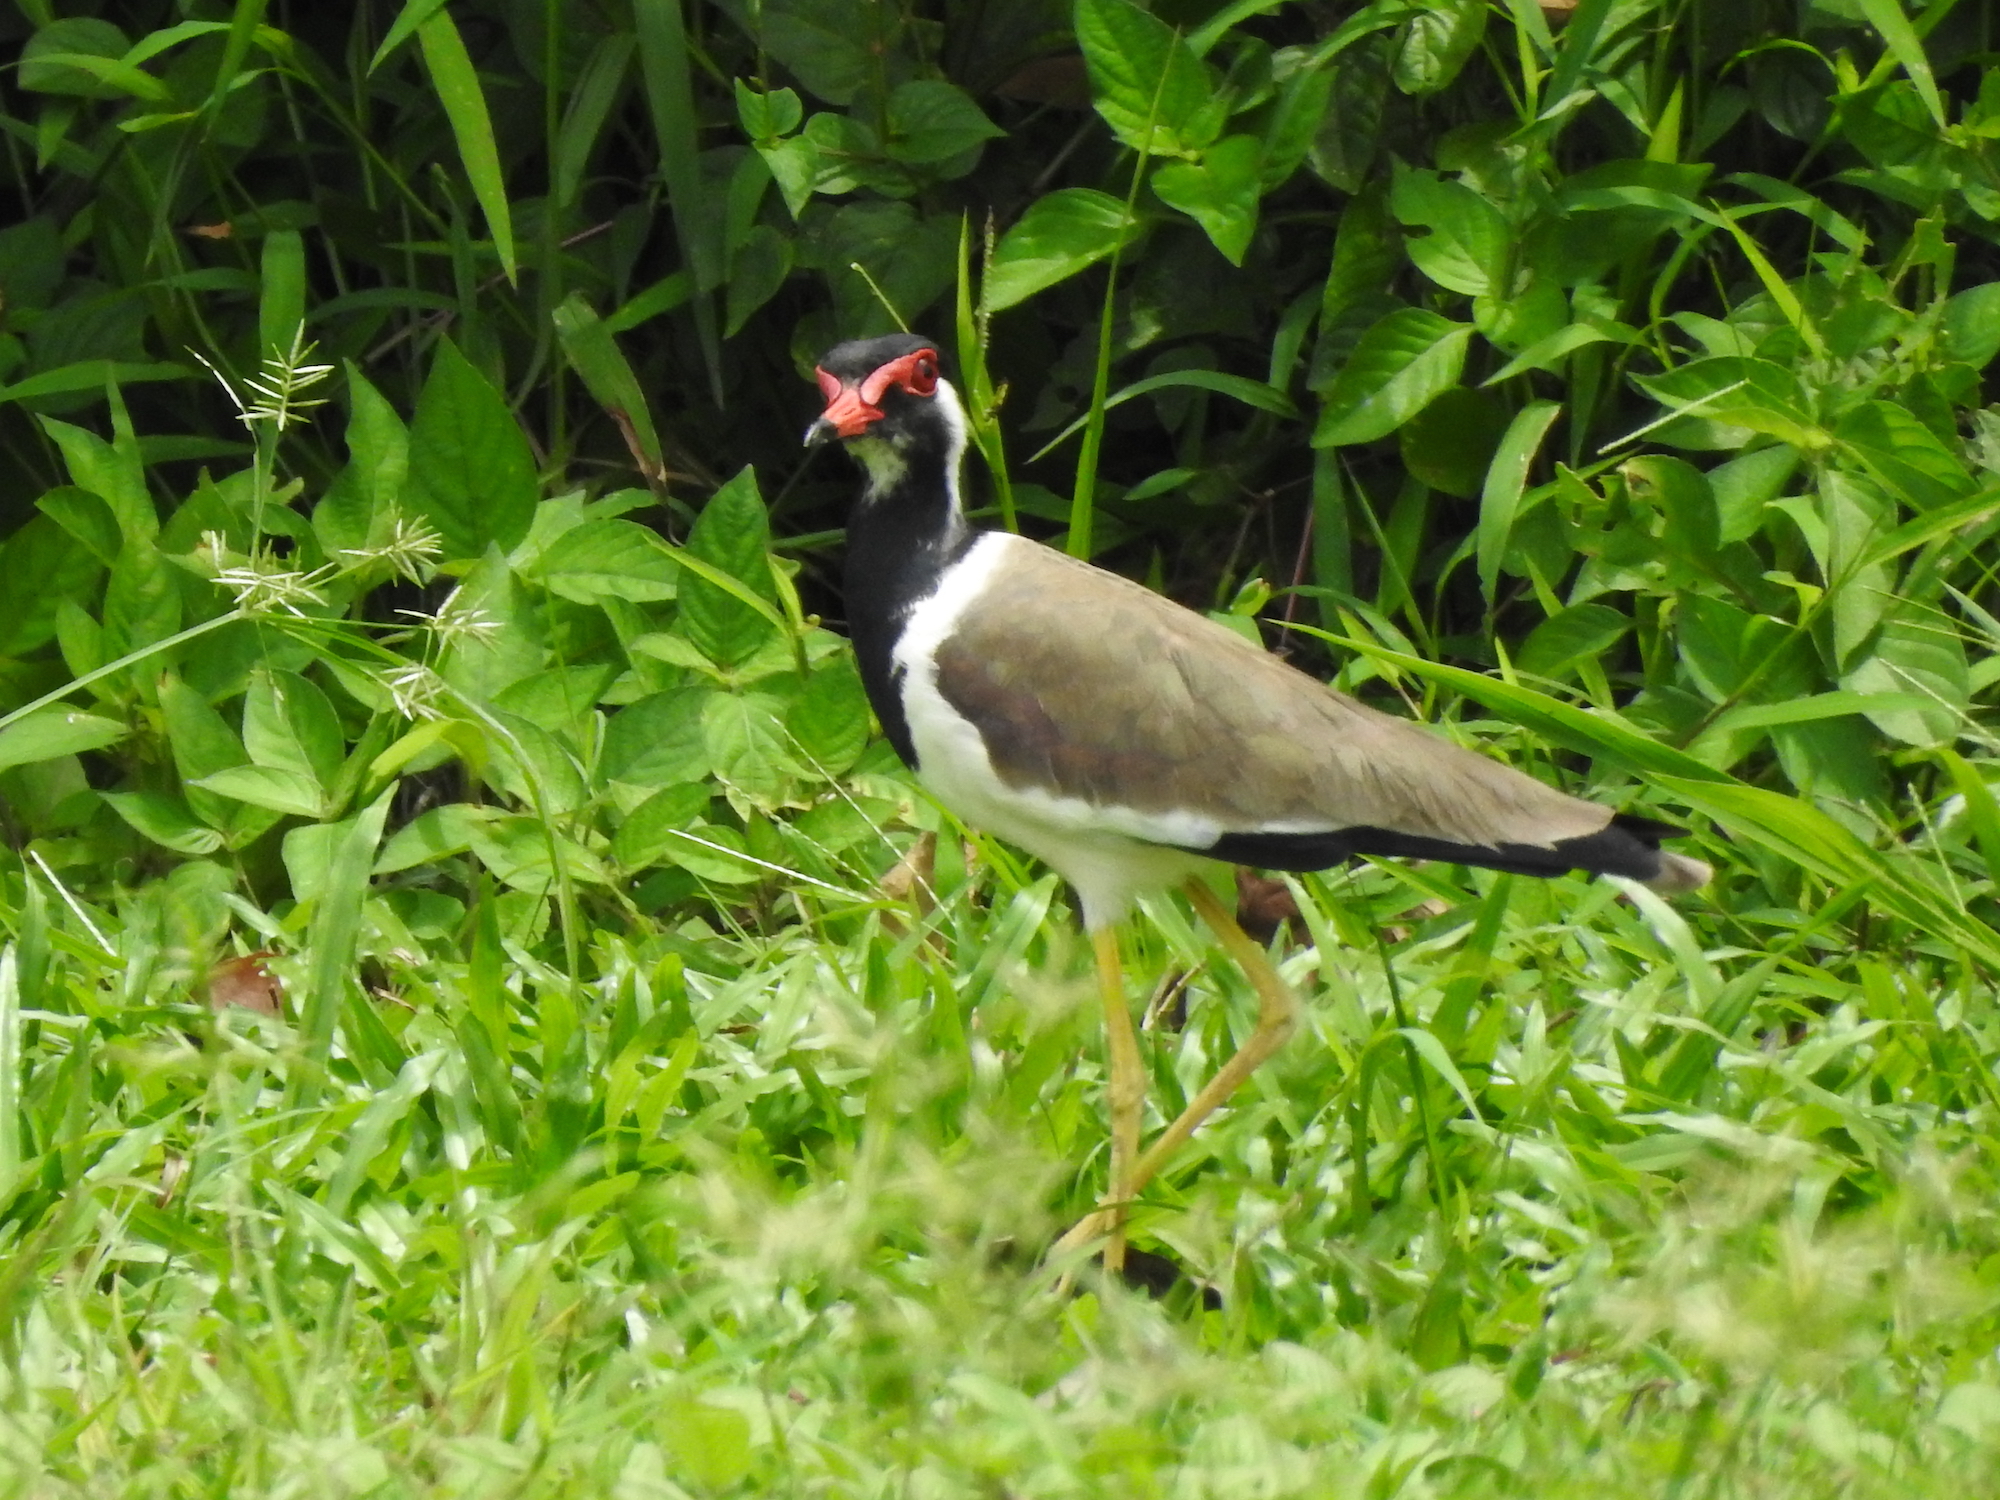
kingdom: Animalia
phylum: Chordata
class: Aves
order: Charadriiformes
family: Charadriidae
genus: Vanellus
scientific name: Vanellus indicus
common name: Red-wattled lapwing
